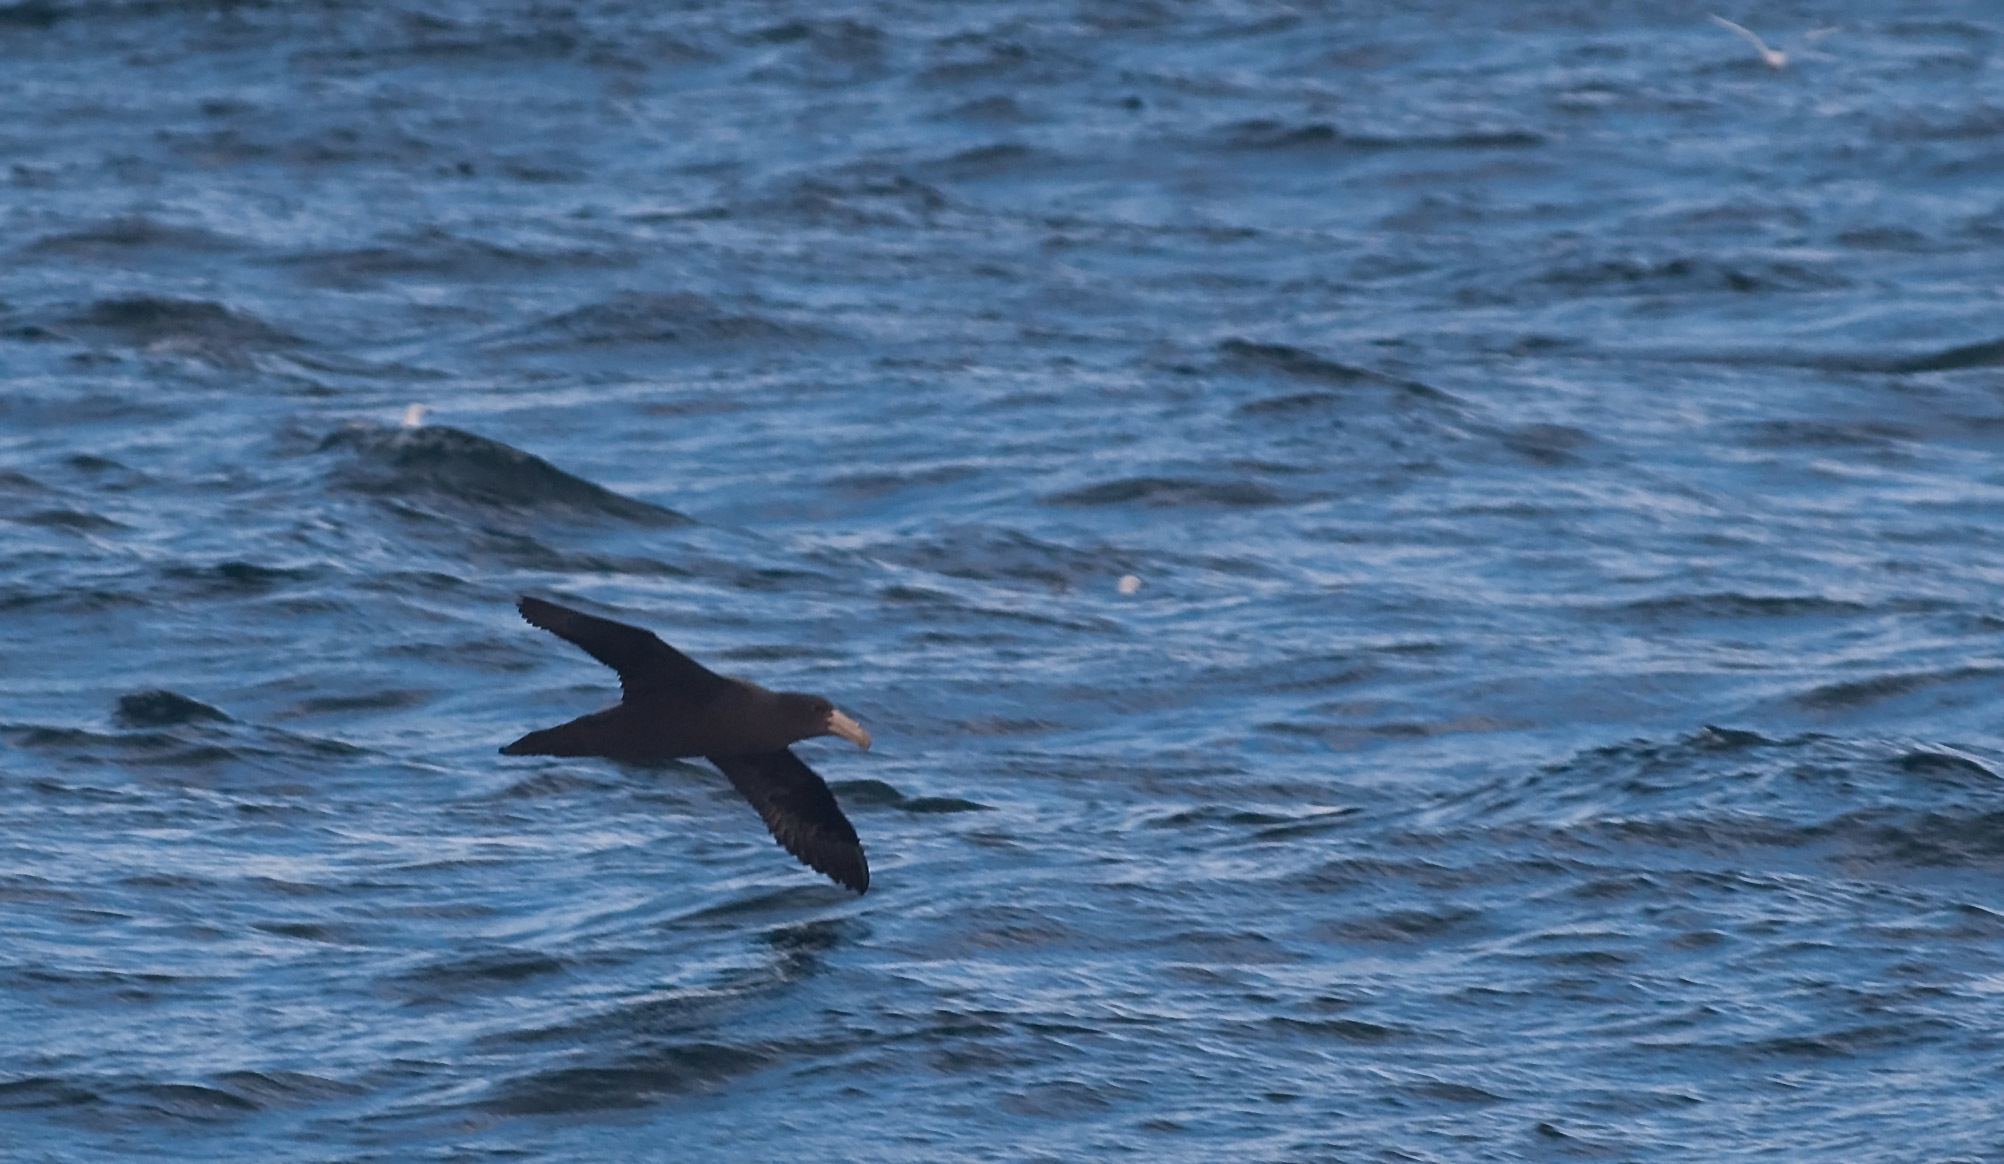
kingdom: Animalia
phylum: Chordata
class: Aves
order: Procellariiformes
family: Procellariidae
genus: Macronectes
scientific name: Macronectes halli
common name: Northern giant petrel
